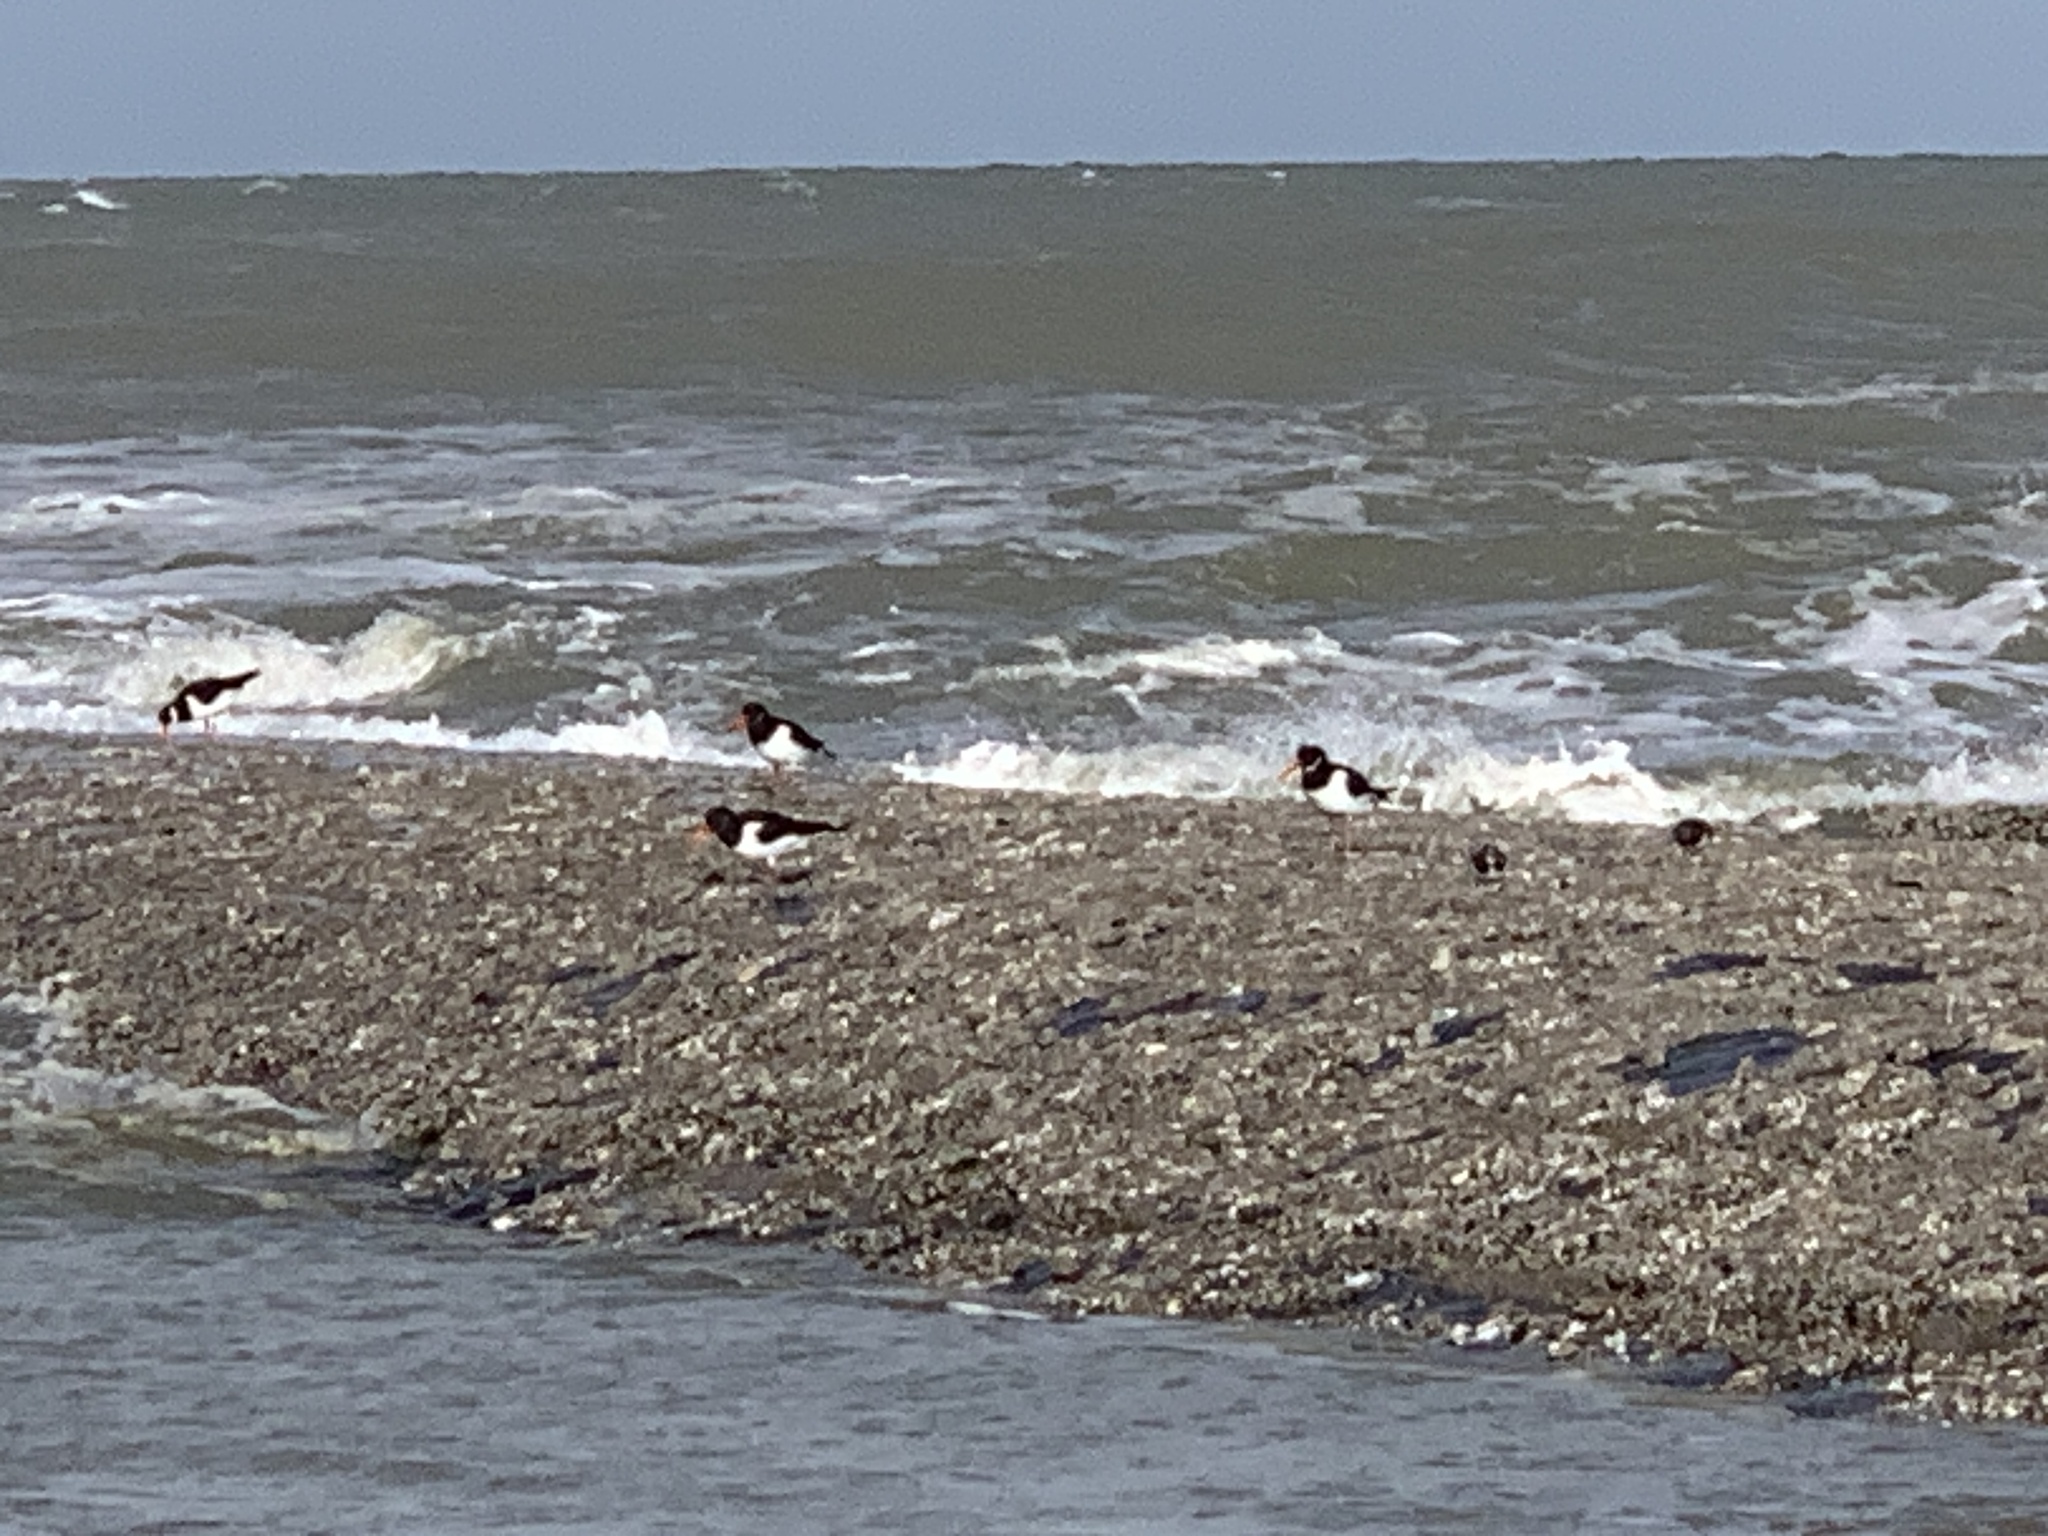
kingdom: Animalia
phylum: Chordata
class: Aves
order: Charadriiformes
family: Haematopodidae
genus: Haematopus
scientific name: Haematopus ostralegus
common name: Eurasian oystercatcher
